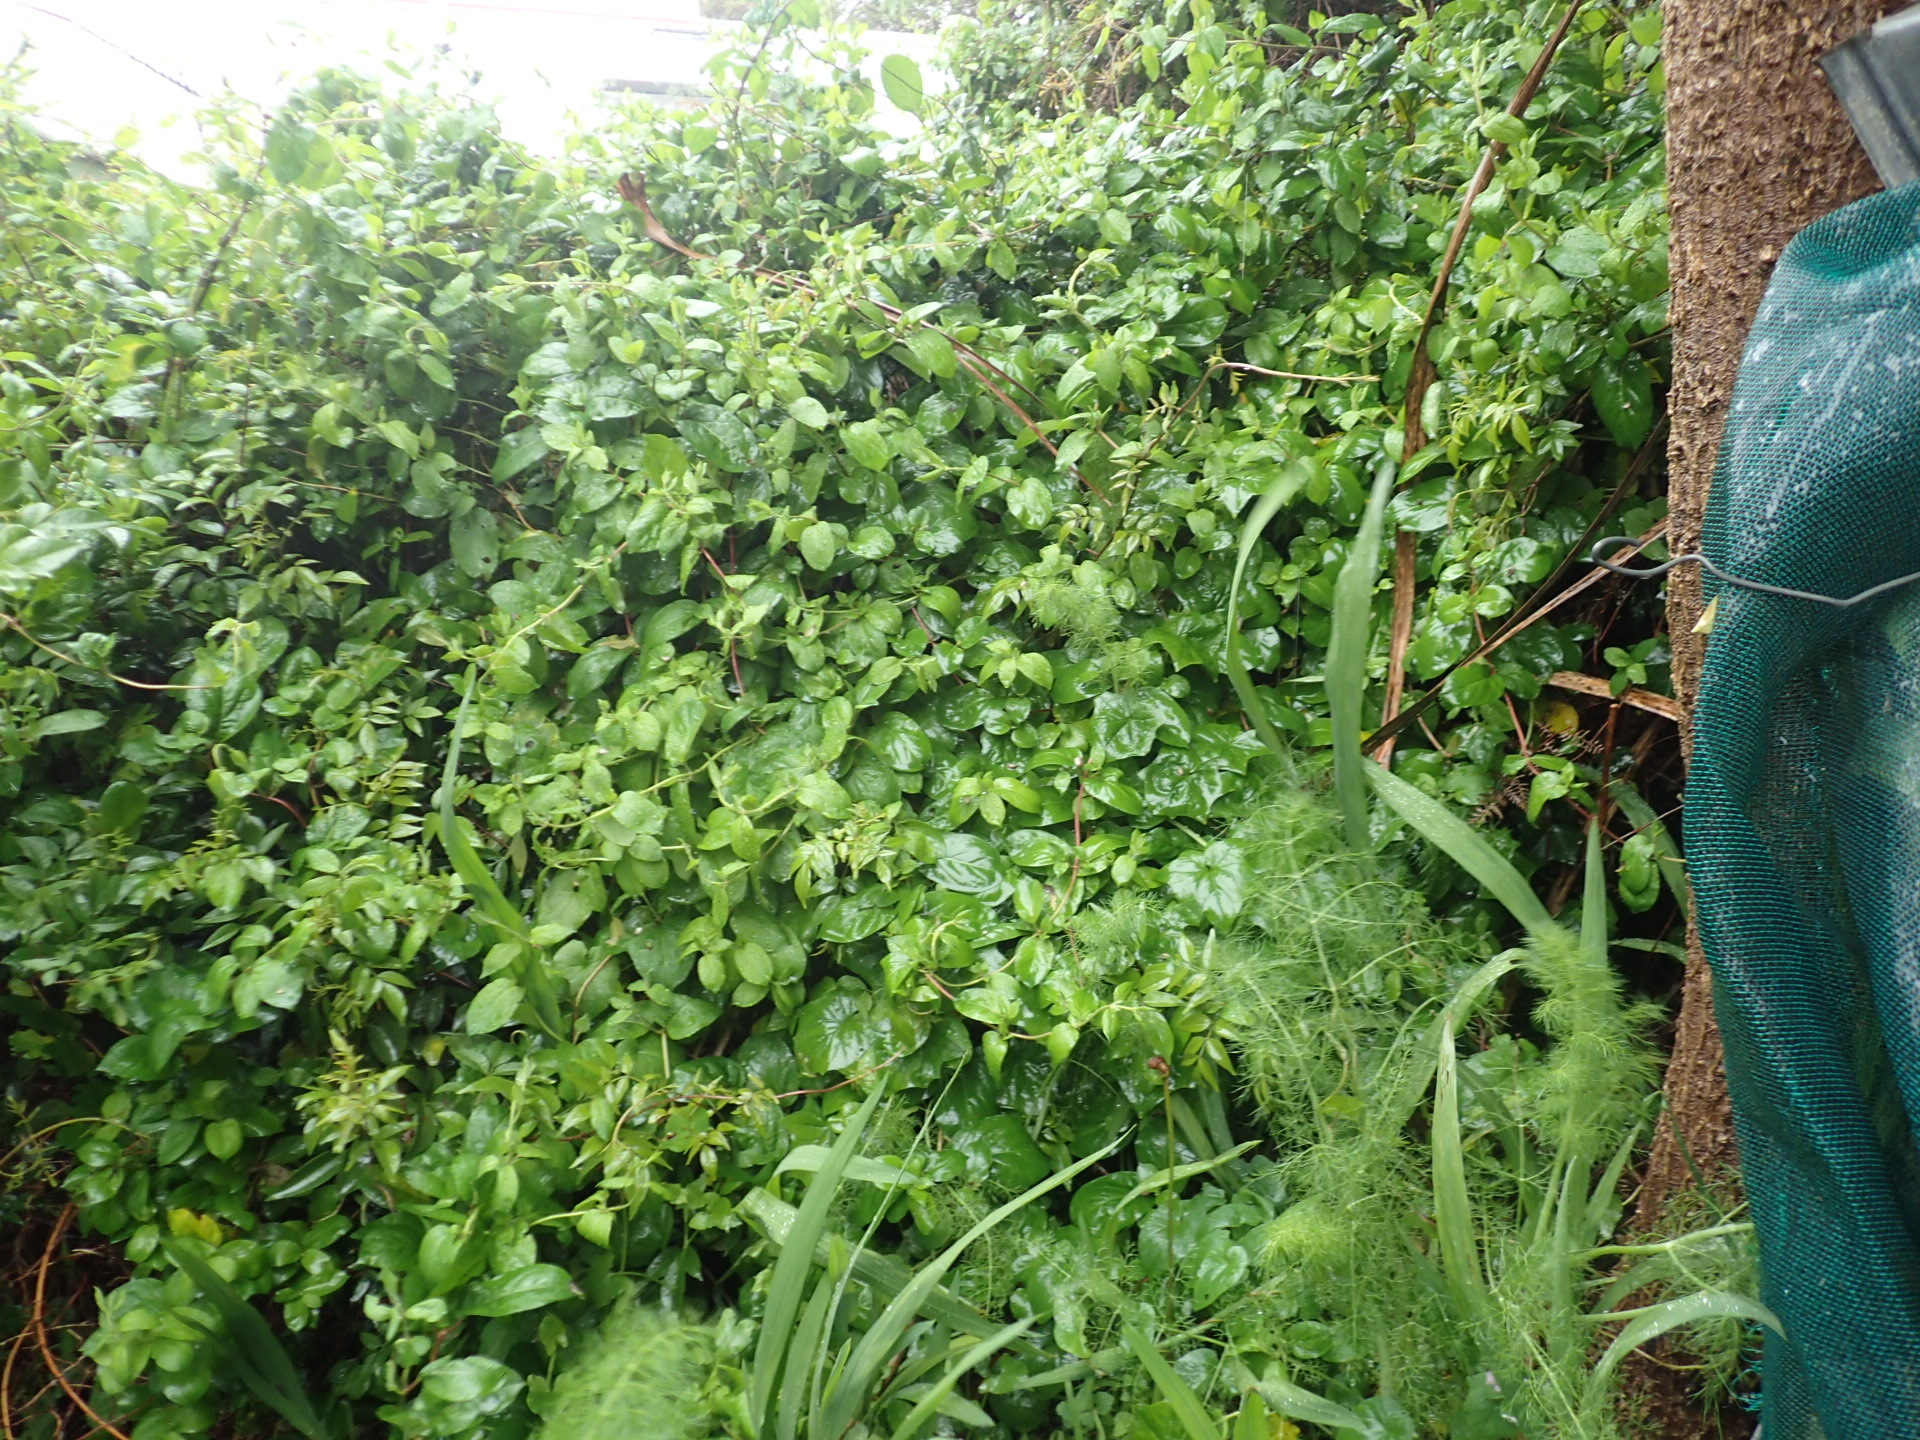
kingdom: Plantae
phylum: Tracheophyta
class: Magnoliopsida
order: Dipsacales
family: Caprifoliaceae
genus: Lonicera
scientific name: Lonicera japonica
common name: Japanese honeysuckle
